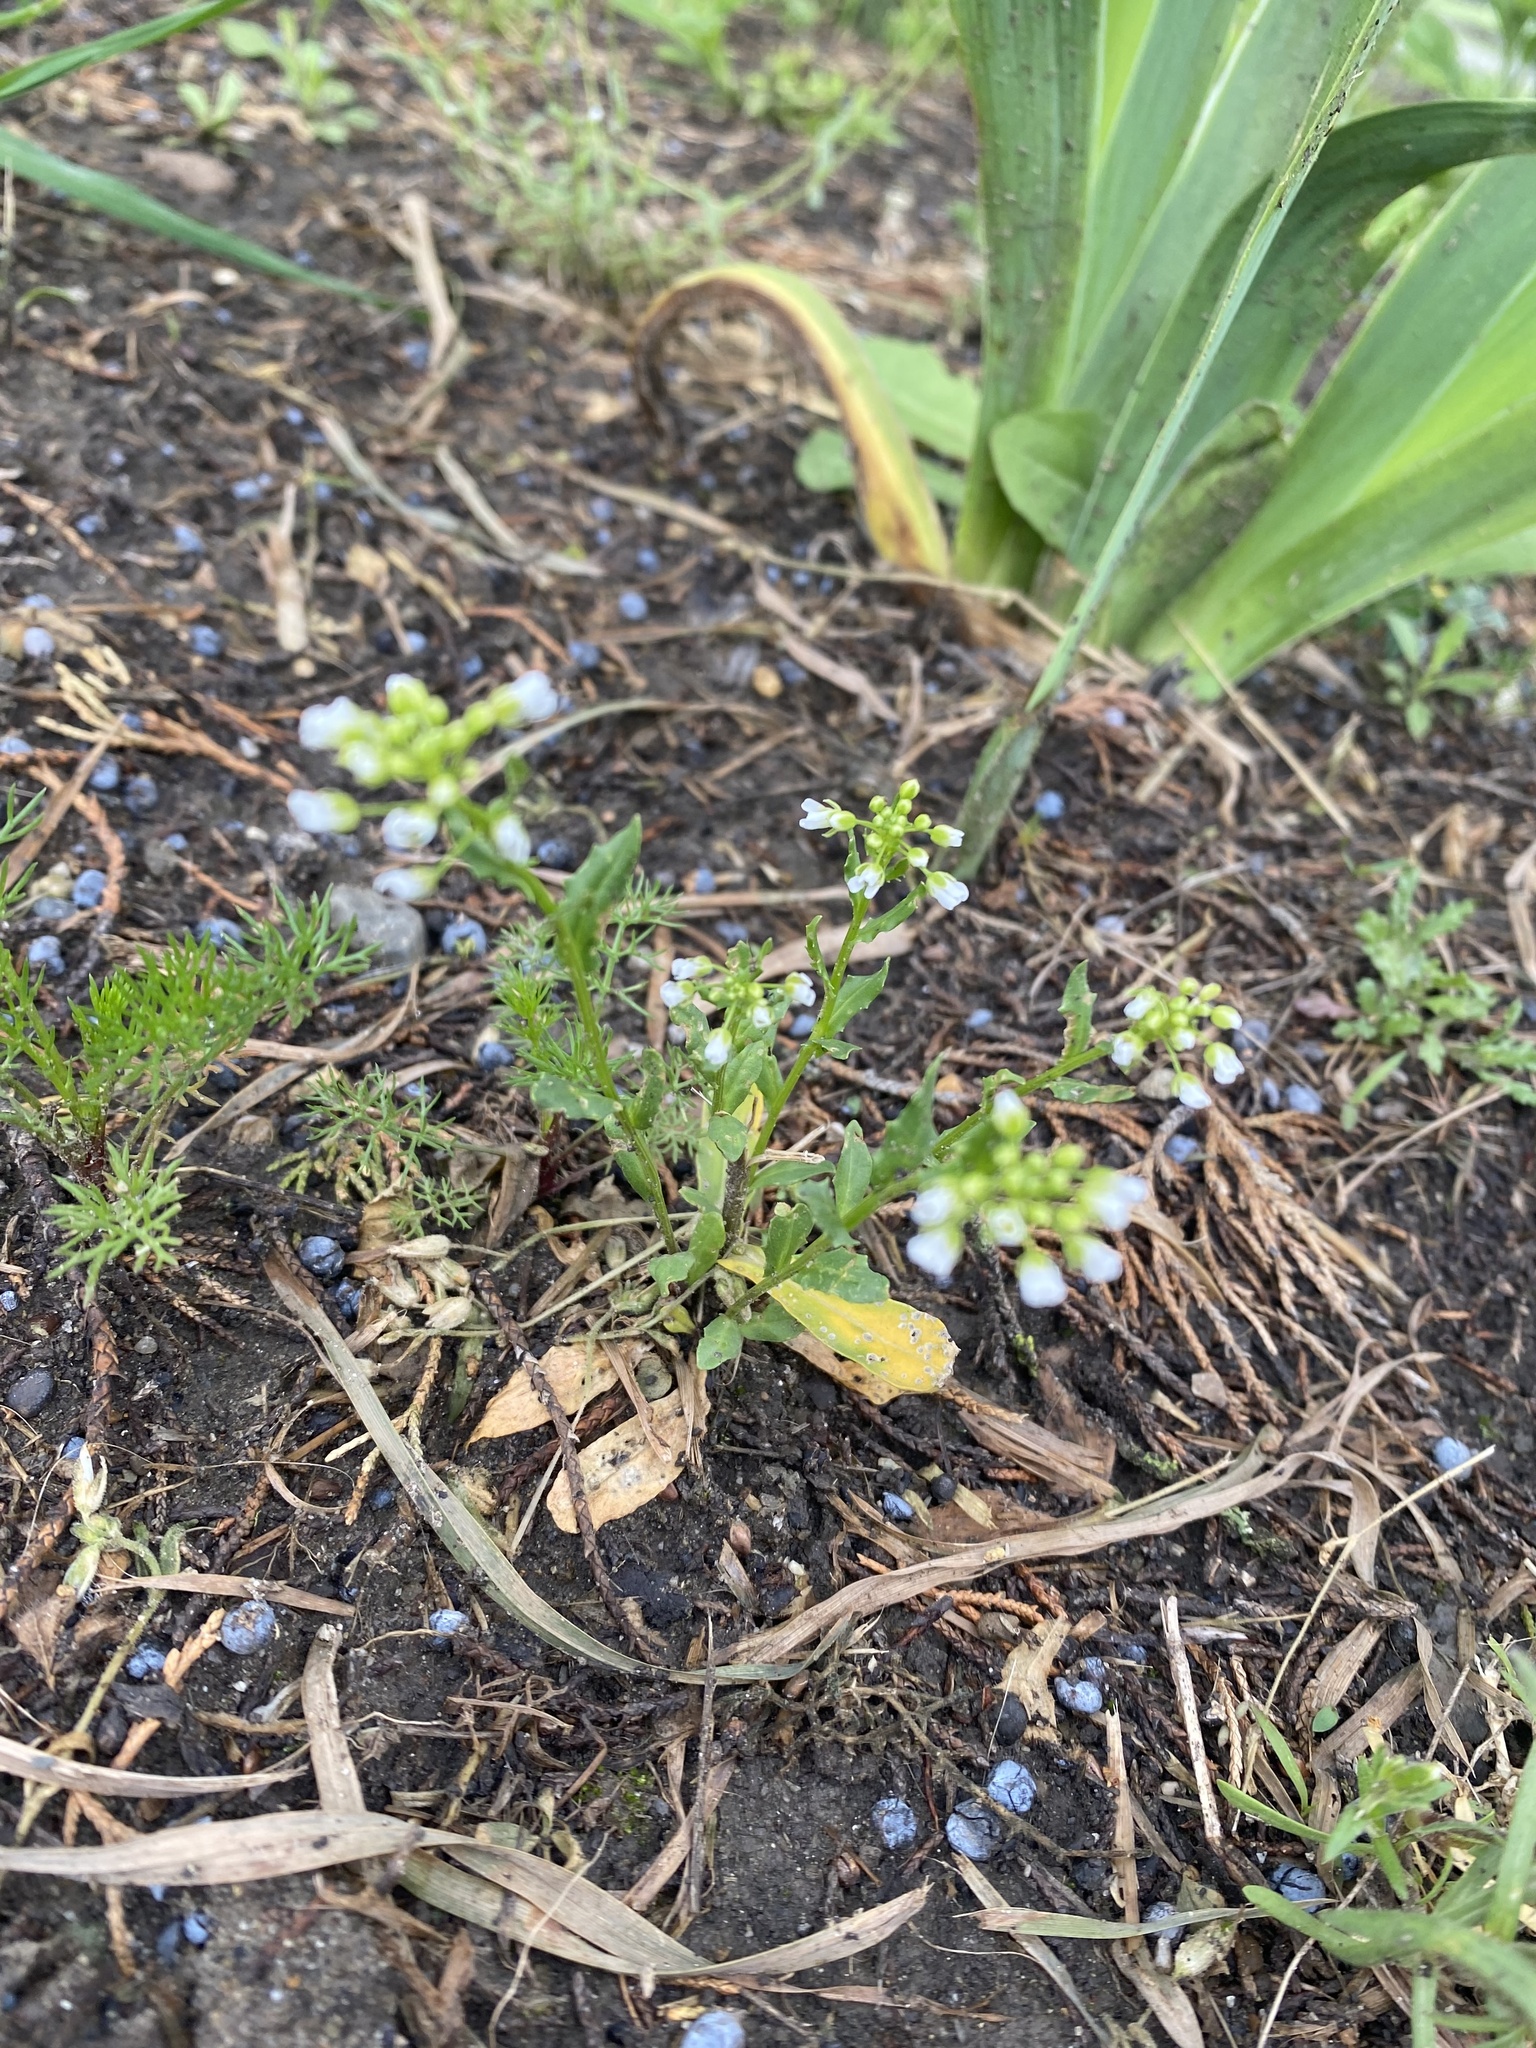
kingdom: Plantae
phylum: Tracheophyta
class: Magnoliopsida
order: Brassicales
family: Brassicaceae
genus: Thlaspi
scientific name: Thlaspi arvense
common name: Field pennycress
